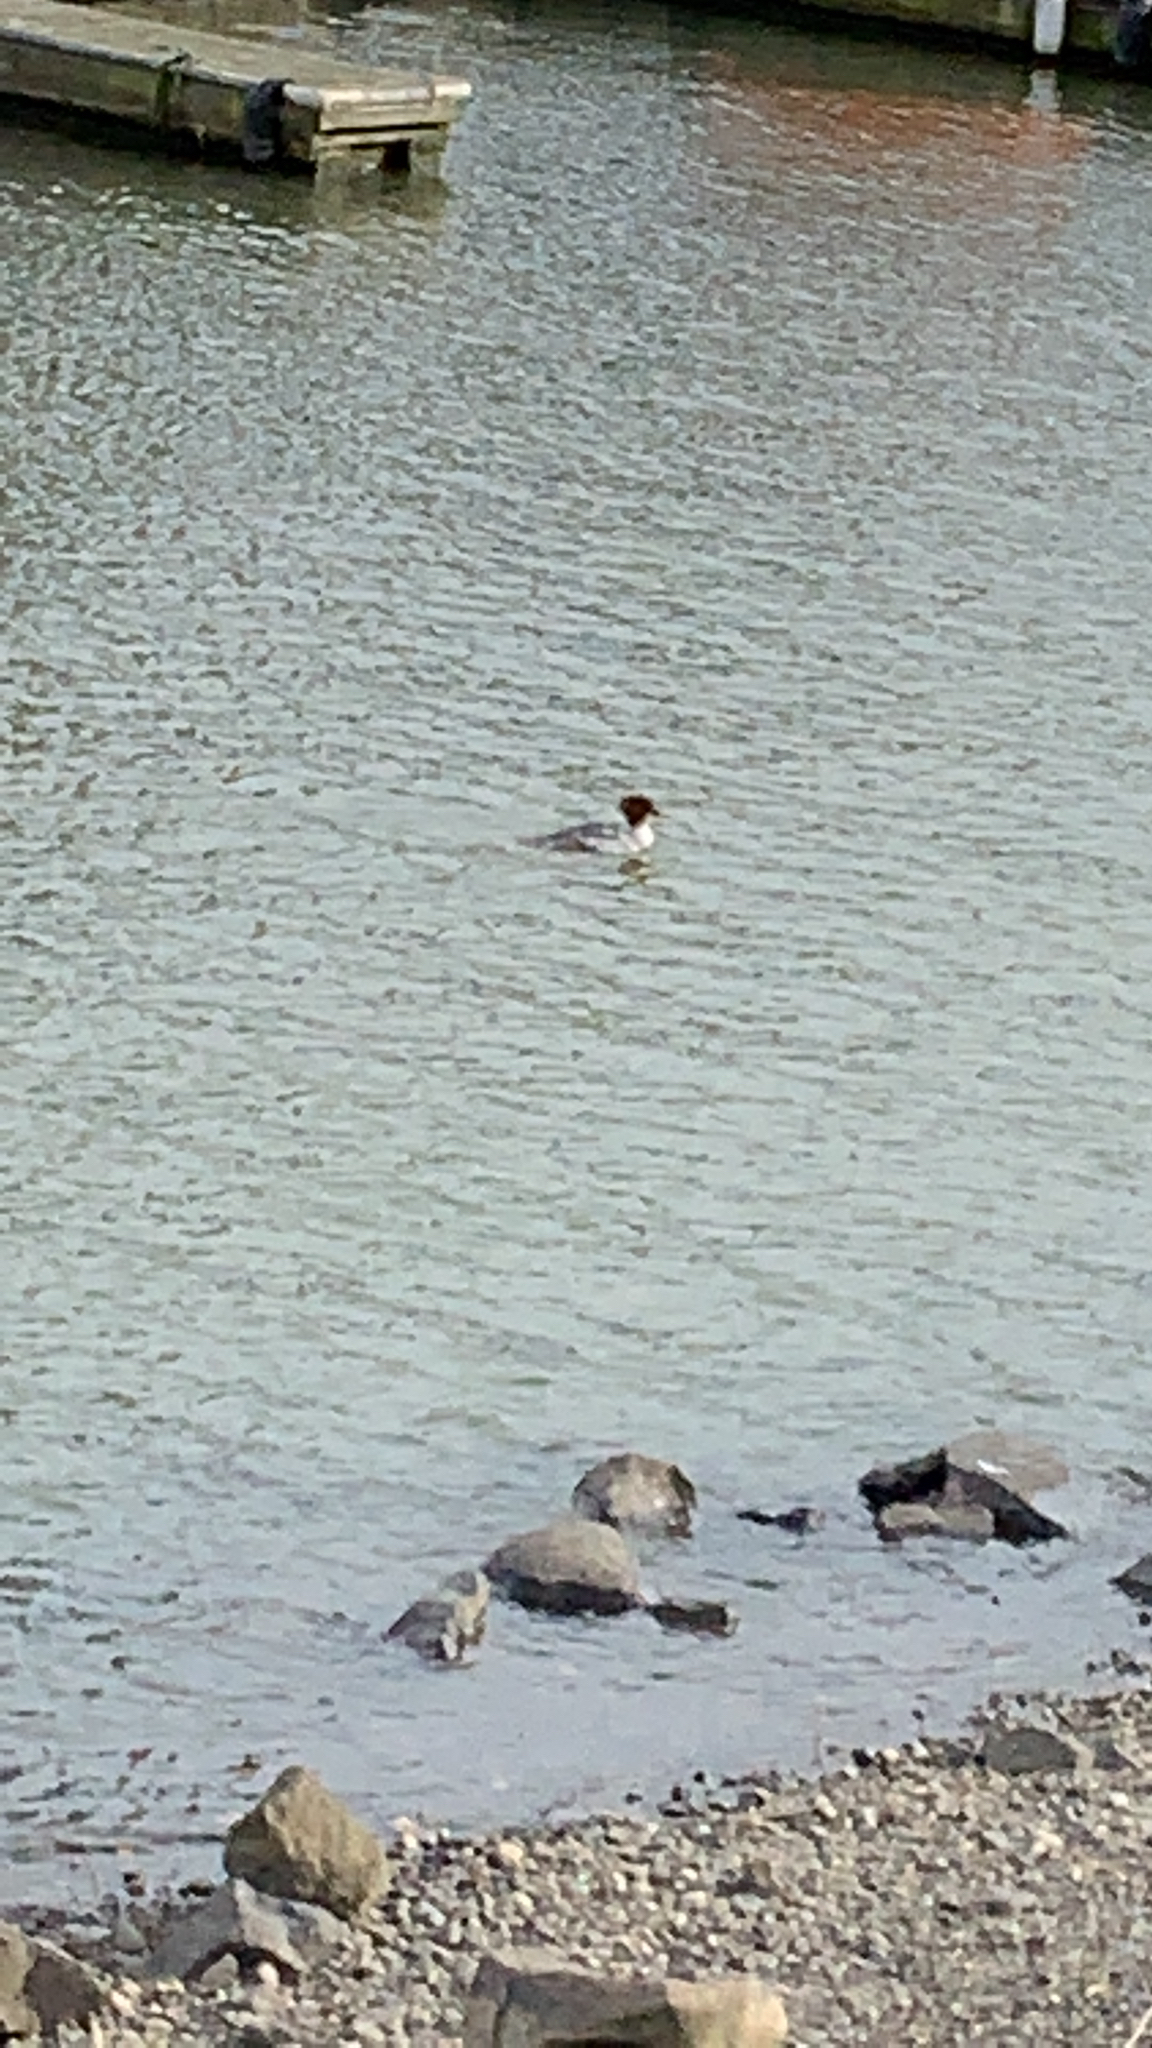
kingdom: Animalia
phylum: Chordata
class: Aves
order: Anseriformes
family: Anatidae
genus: Mergus
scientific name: Mergus merganser
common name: Common merganser
